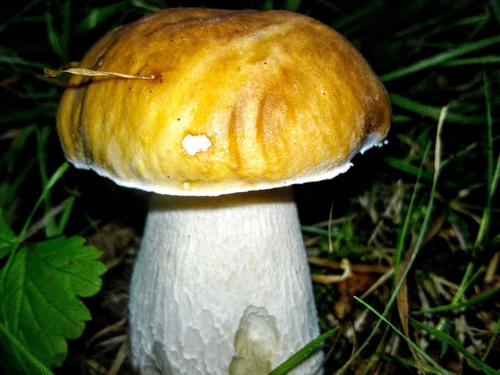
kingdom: Fungi
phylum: Basidiomycota
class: Agaricomycetes
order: Boletales
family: Boletaceae
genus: Boletus
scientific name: Boletus edulis
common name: Cep
